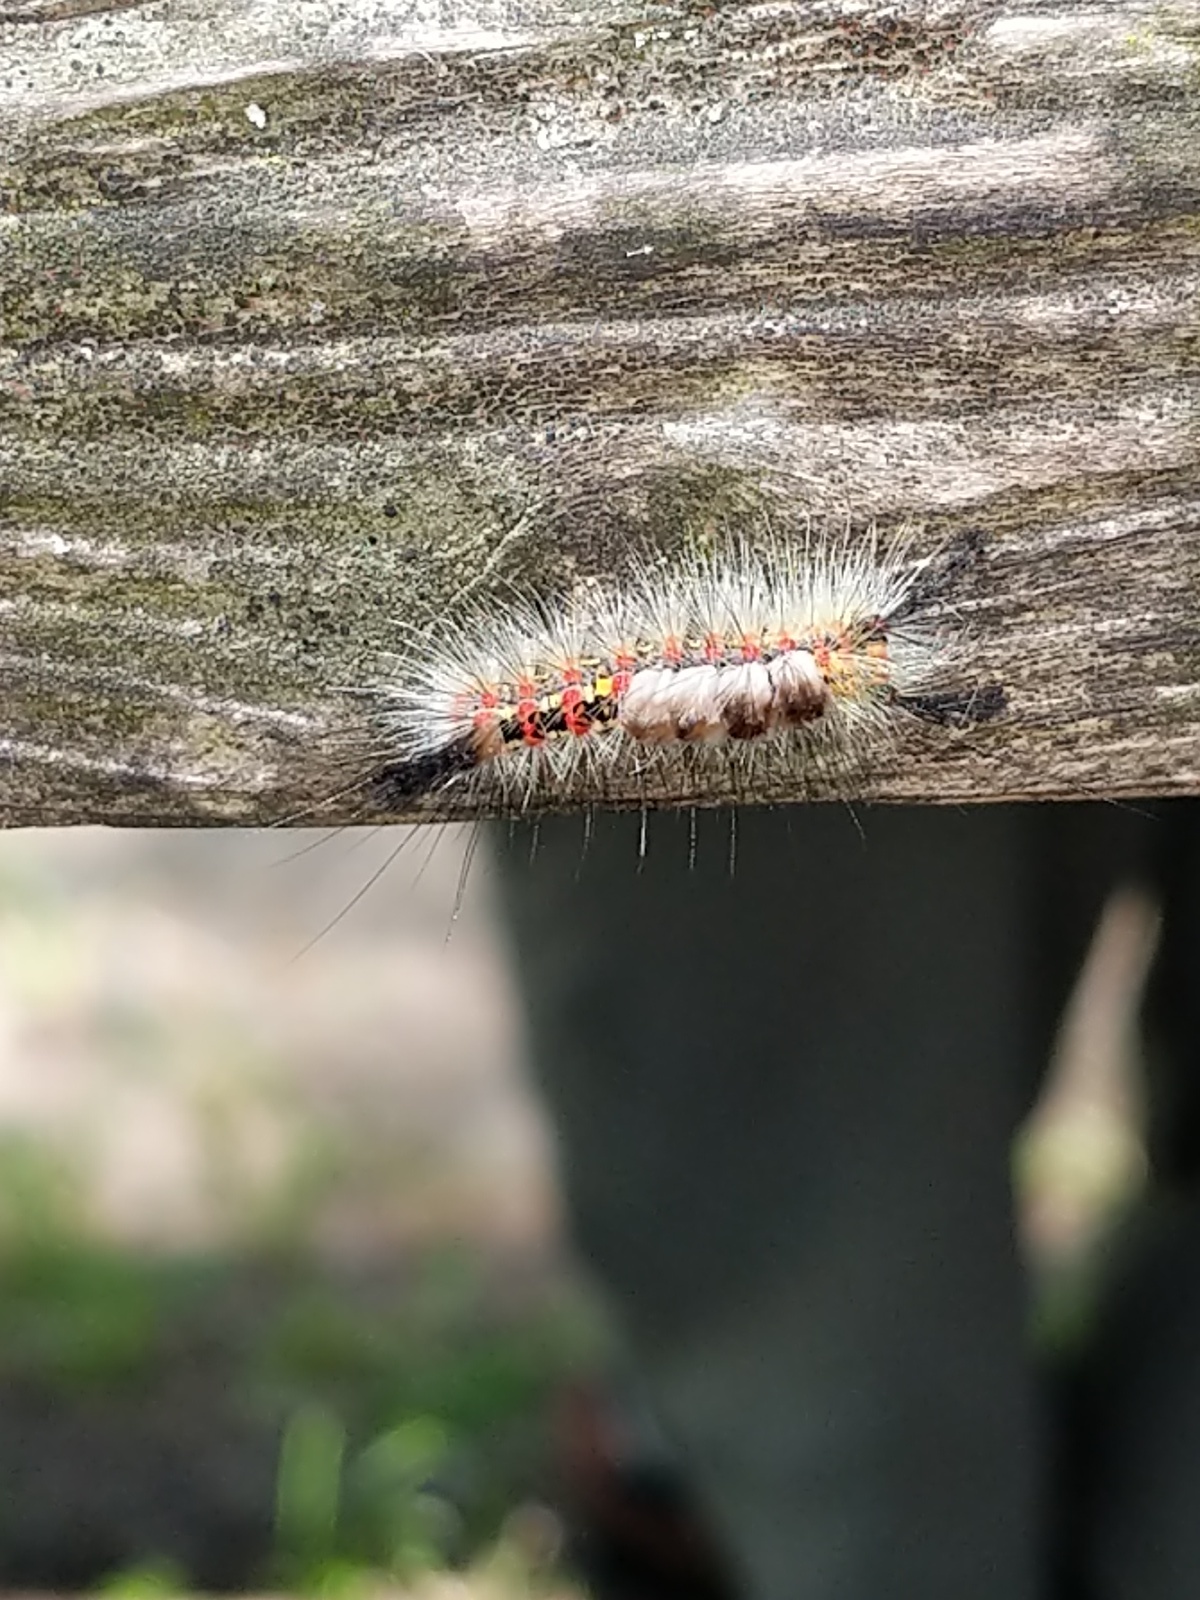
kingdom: Animalia
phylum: Arthropoda
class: Insecta
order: Lepidoptera
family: Erebidae
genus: Orgyia
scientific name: Orgyia vetusta
